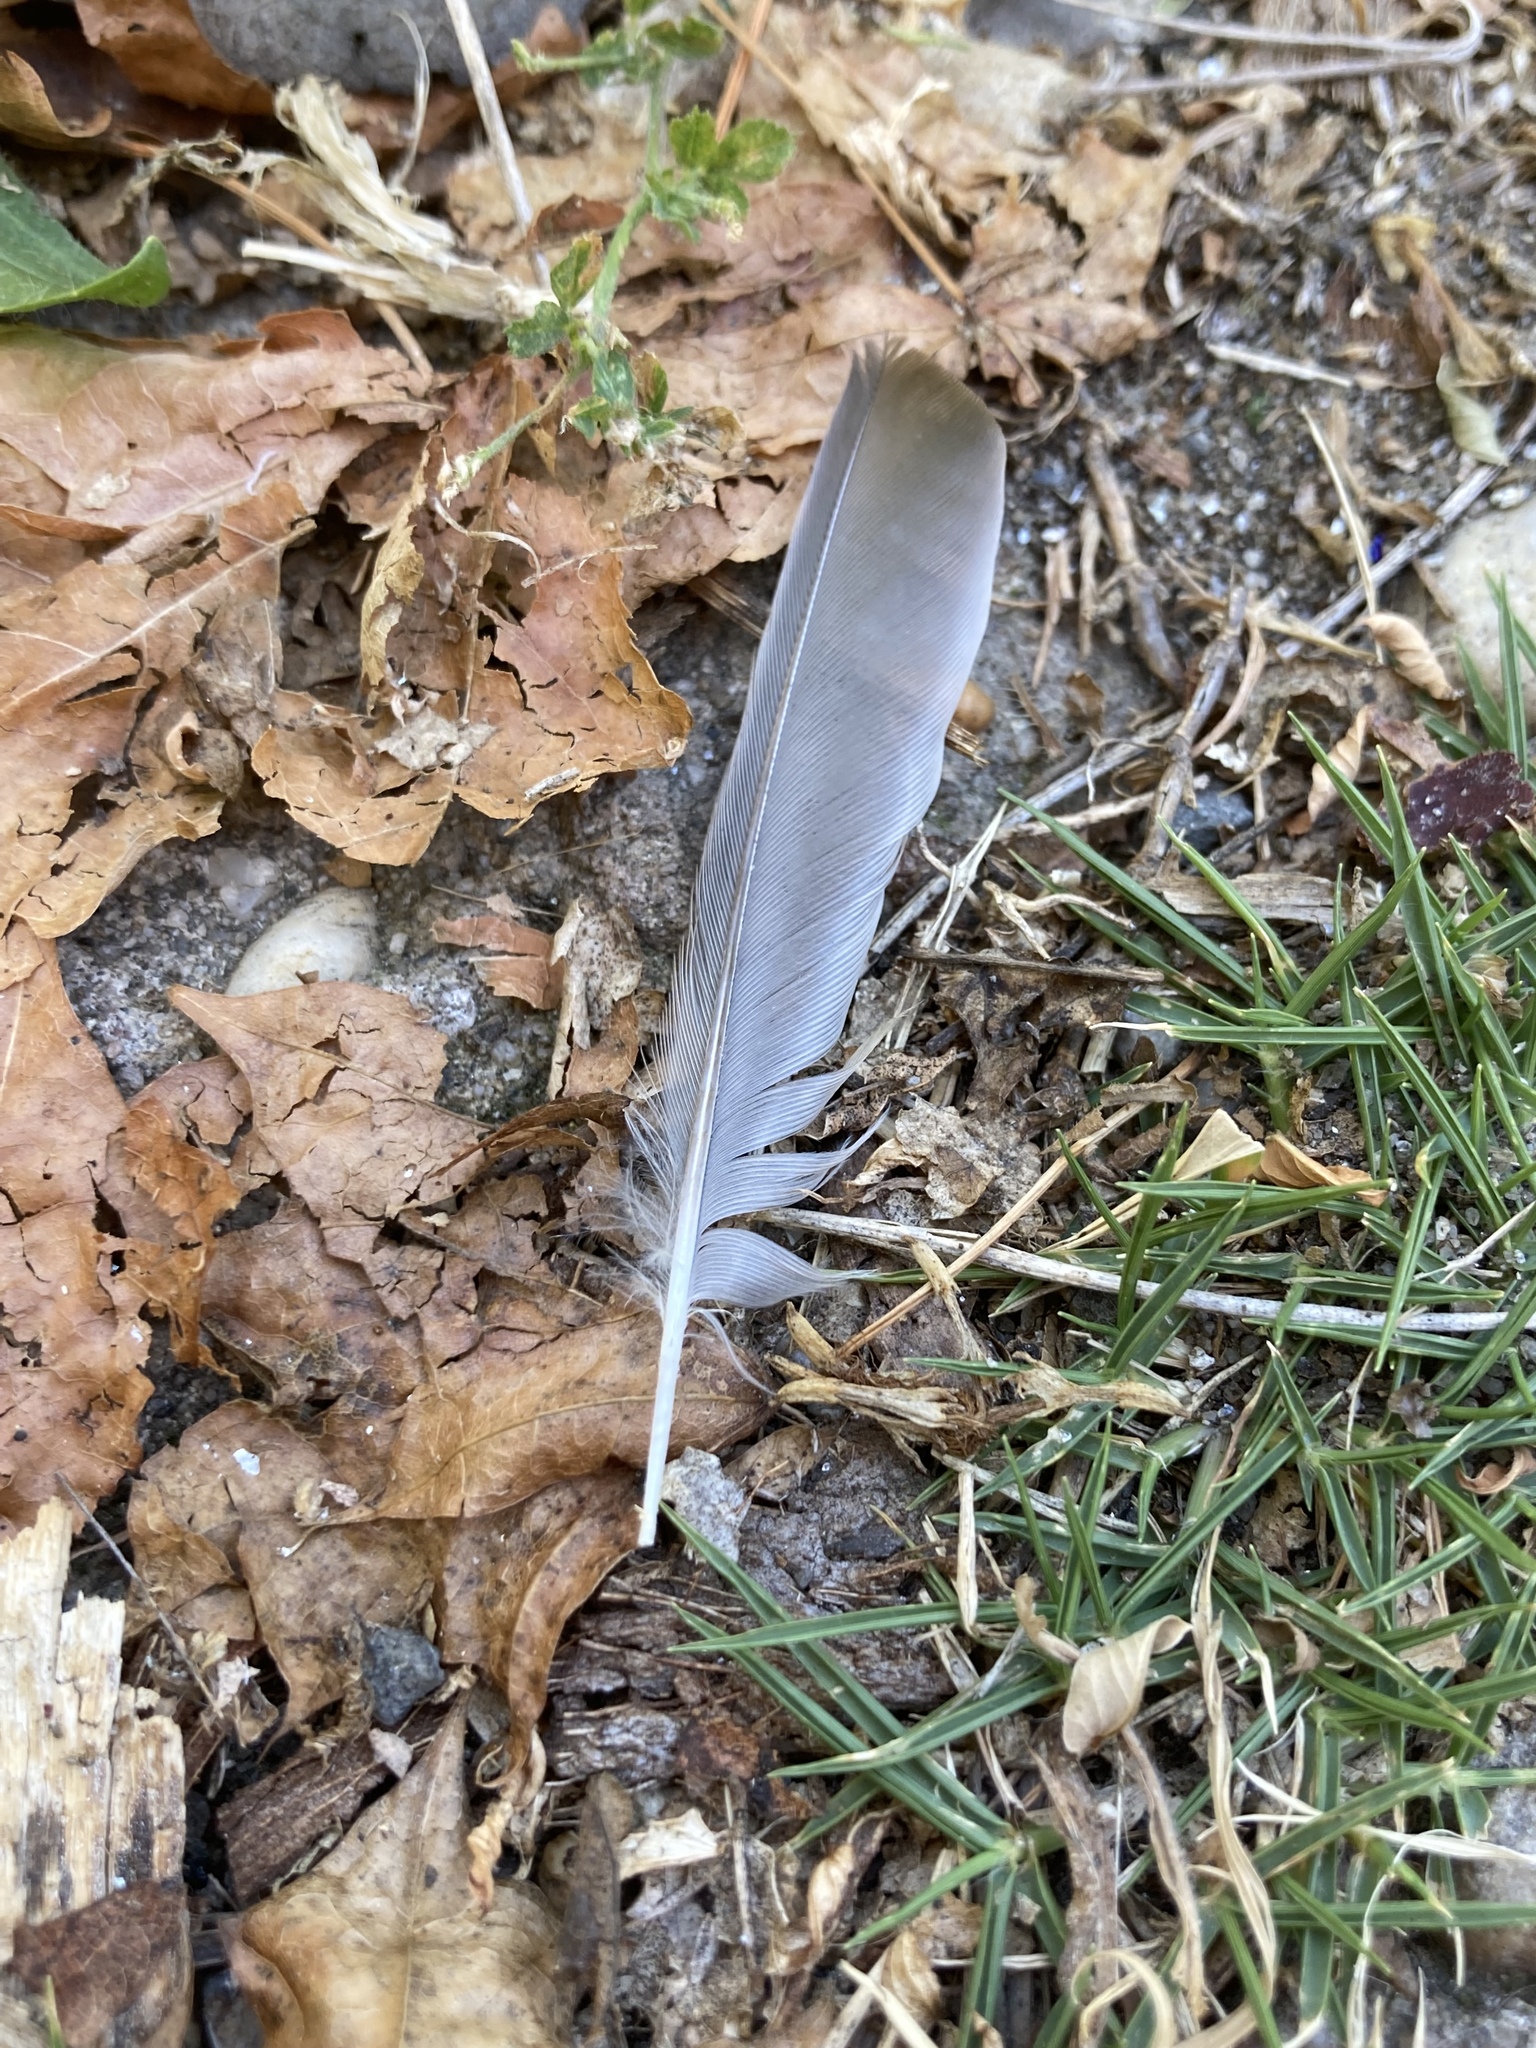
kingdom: Animalia
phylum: Chordata
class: Aves
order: Passeriformes
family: Passeridae
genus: Passer
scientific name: Passer domesticus
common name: House sparrow
